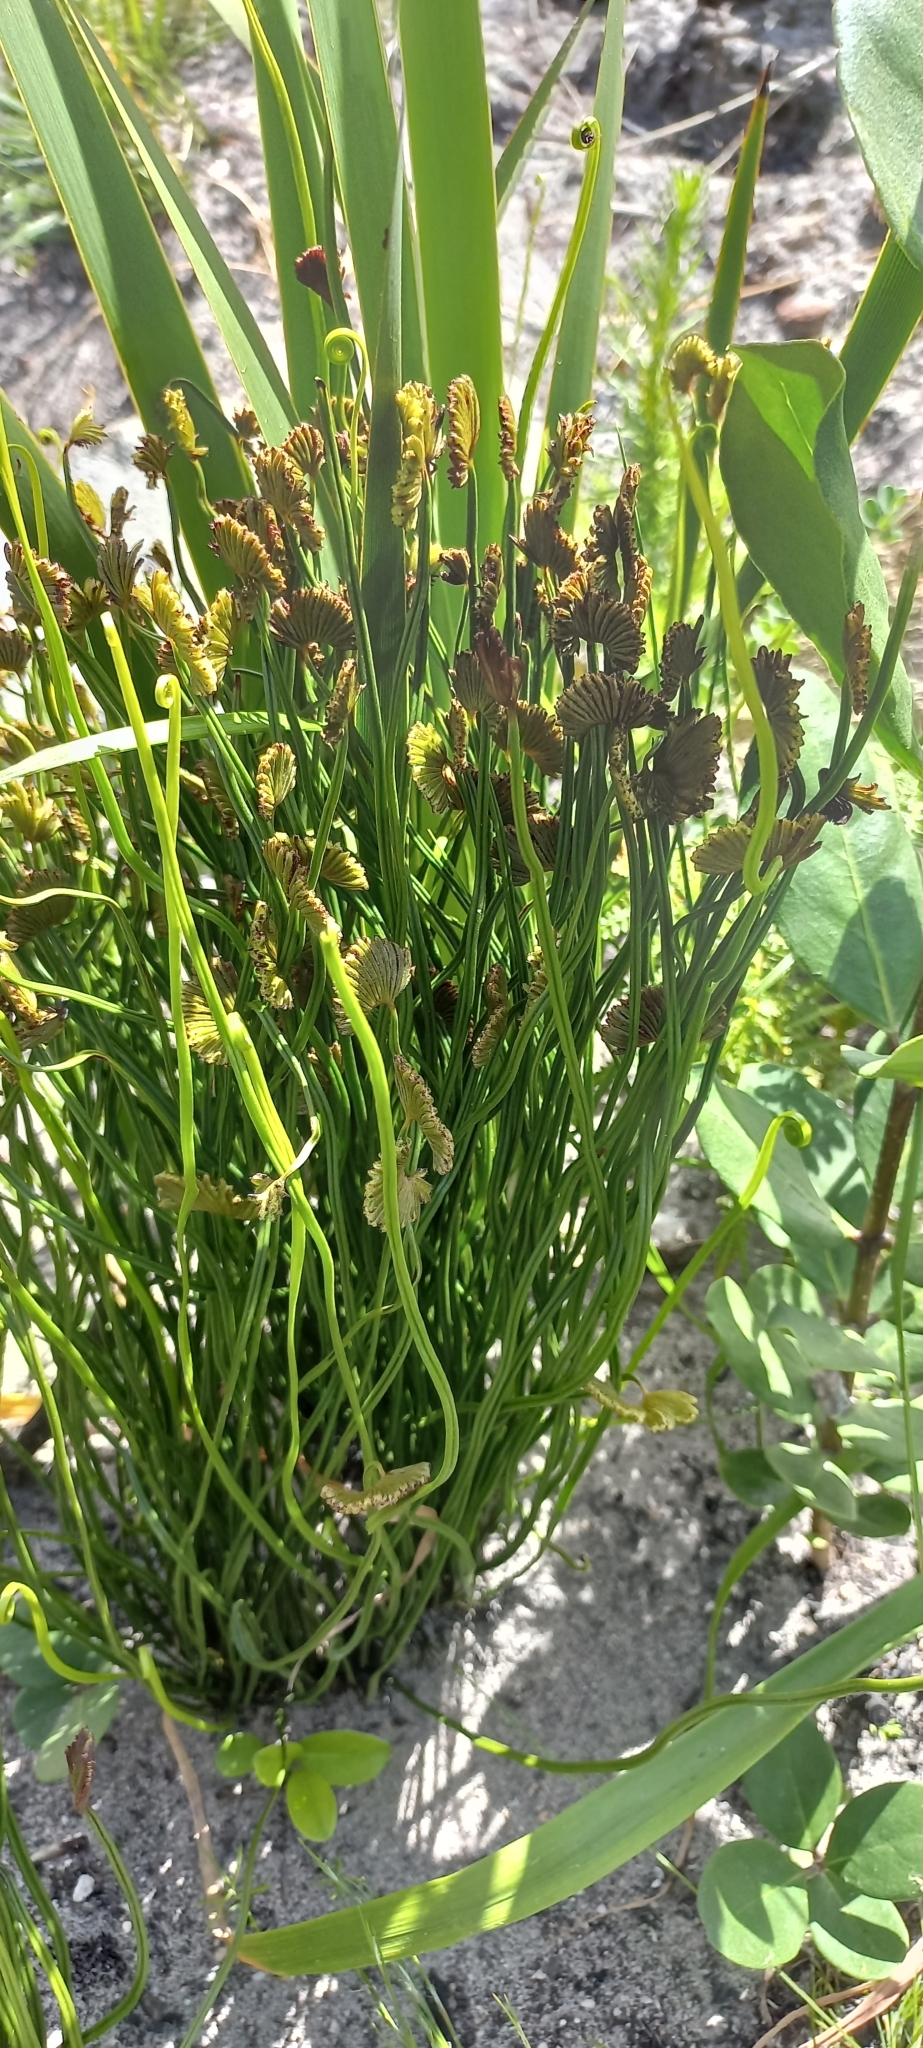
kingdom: Plantae
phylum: Tracheophyta
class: Polypodiopsida
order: Schizaeales
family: Schizaeaceae
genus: Schizaea
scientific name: Schizaea pectinata
